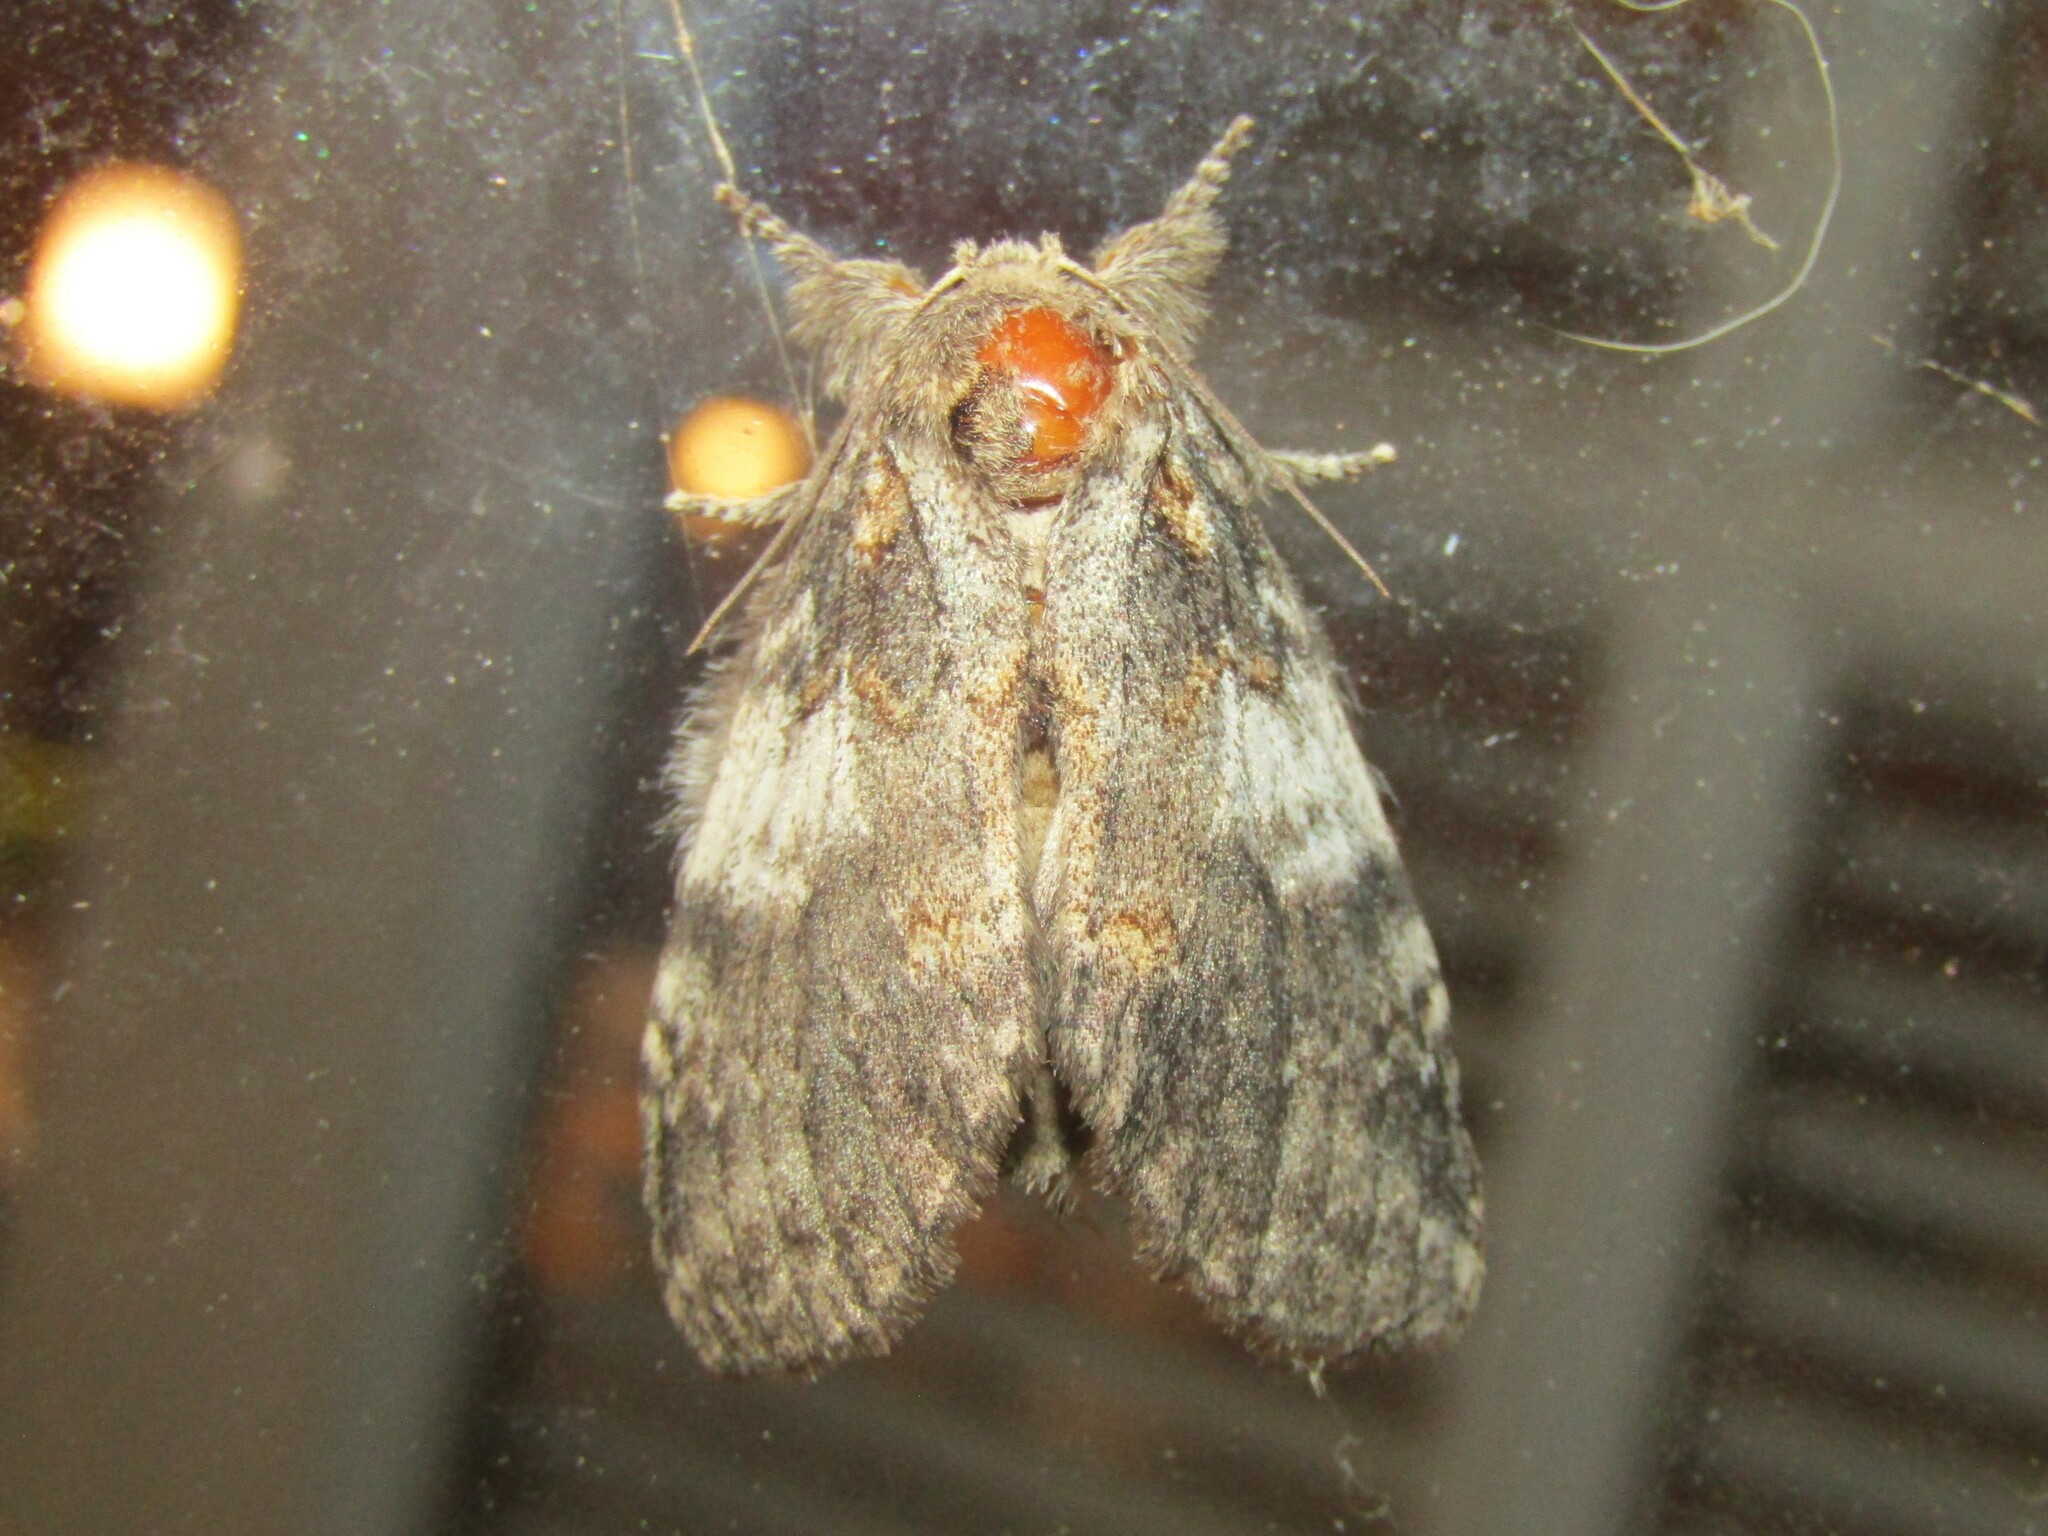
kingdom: Animalia
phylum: Arthropoda
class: Insecta
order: Lepidoptera
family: Notodontidae
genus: Peridea
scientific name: Peridea angulosa
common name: Angulose prominent
